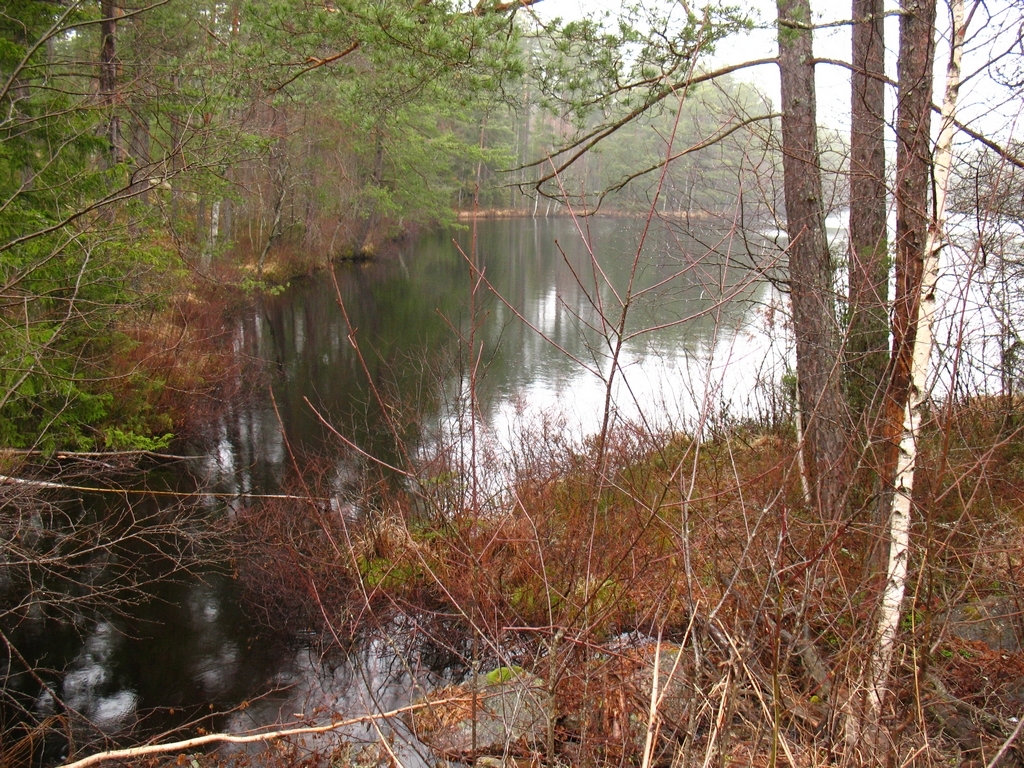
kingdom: Plantae
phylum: Tracheophyta
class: Magnoliopsida
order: Fagales
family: Betulaceae
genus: Betula
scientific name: Betula pendula
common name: Silver birch
